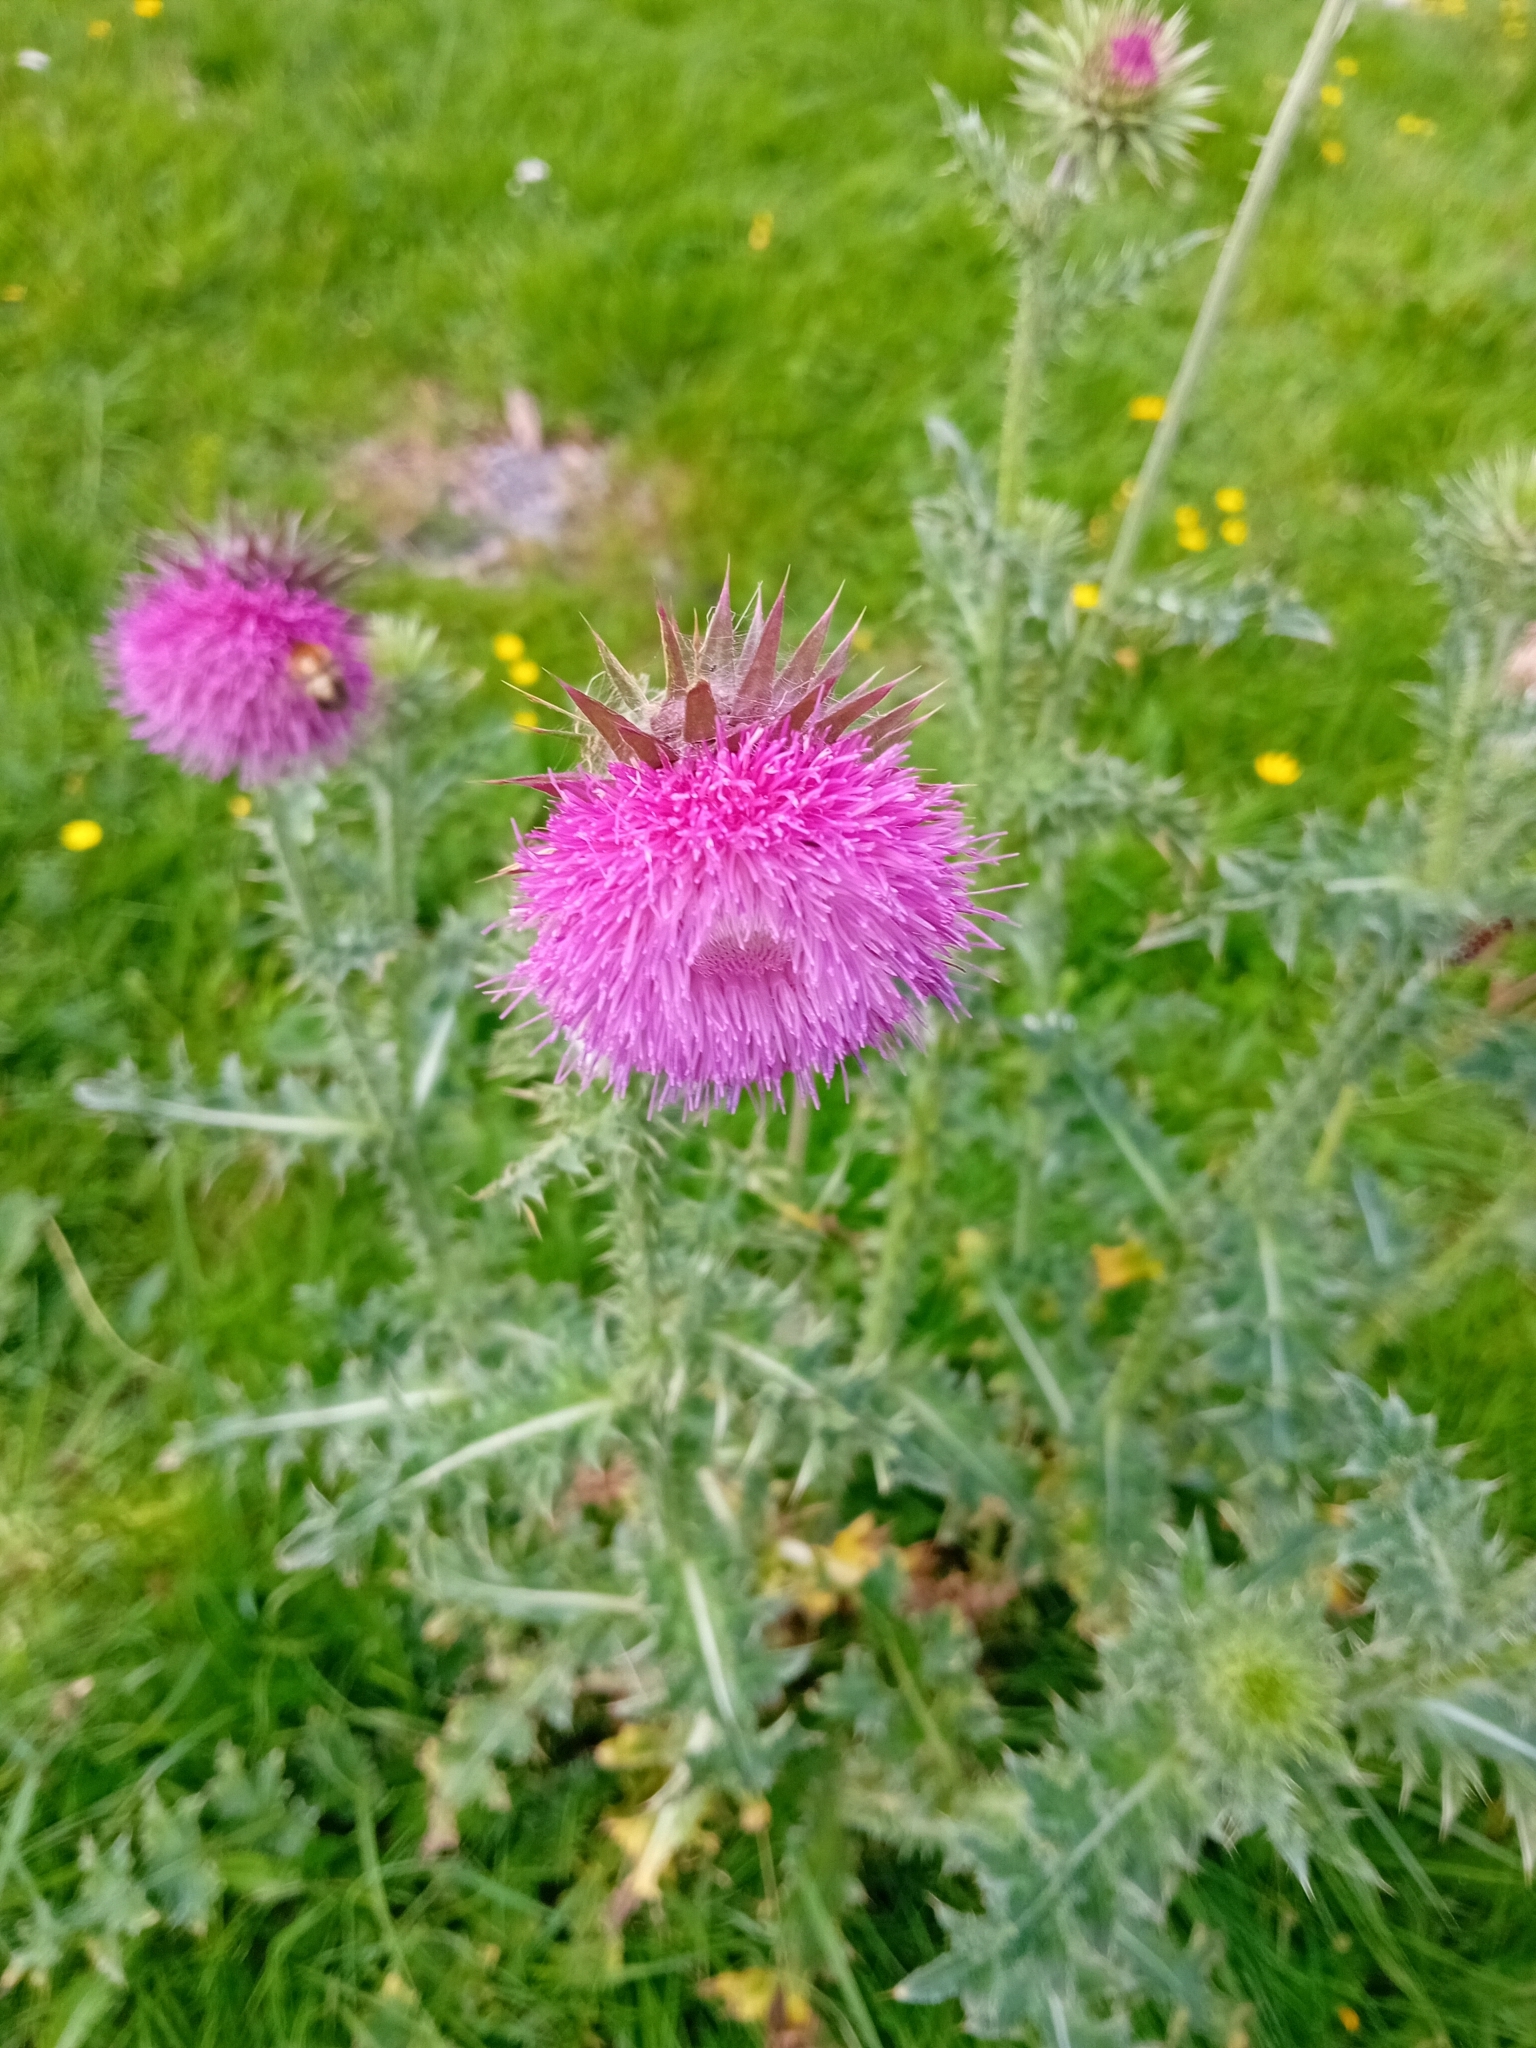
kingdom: Plantae
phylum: Tracheophyta
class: Magnoliopsida
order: Asterales
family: Asteraceae
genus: Carduus
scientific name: Carduus nutans
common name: Musk thistle
